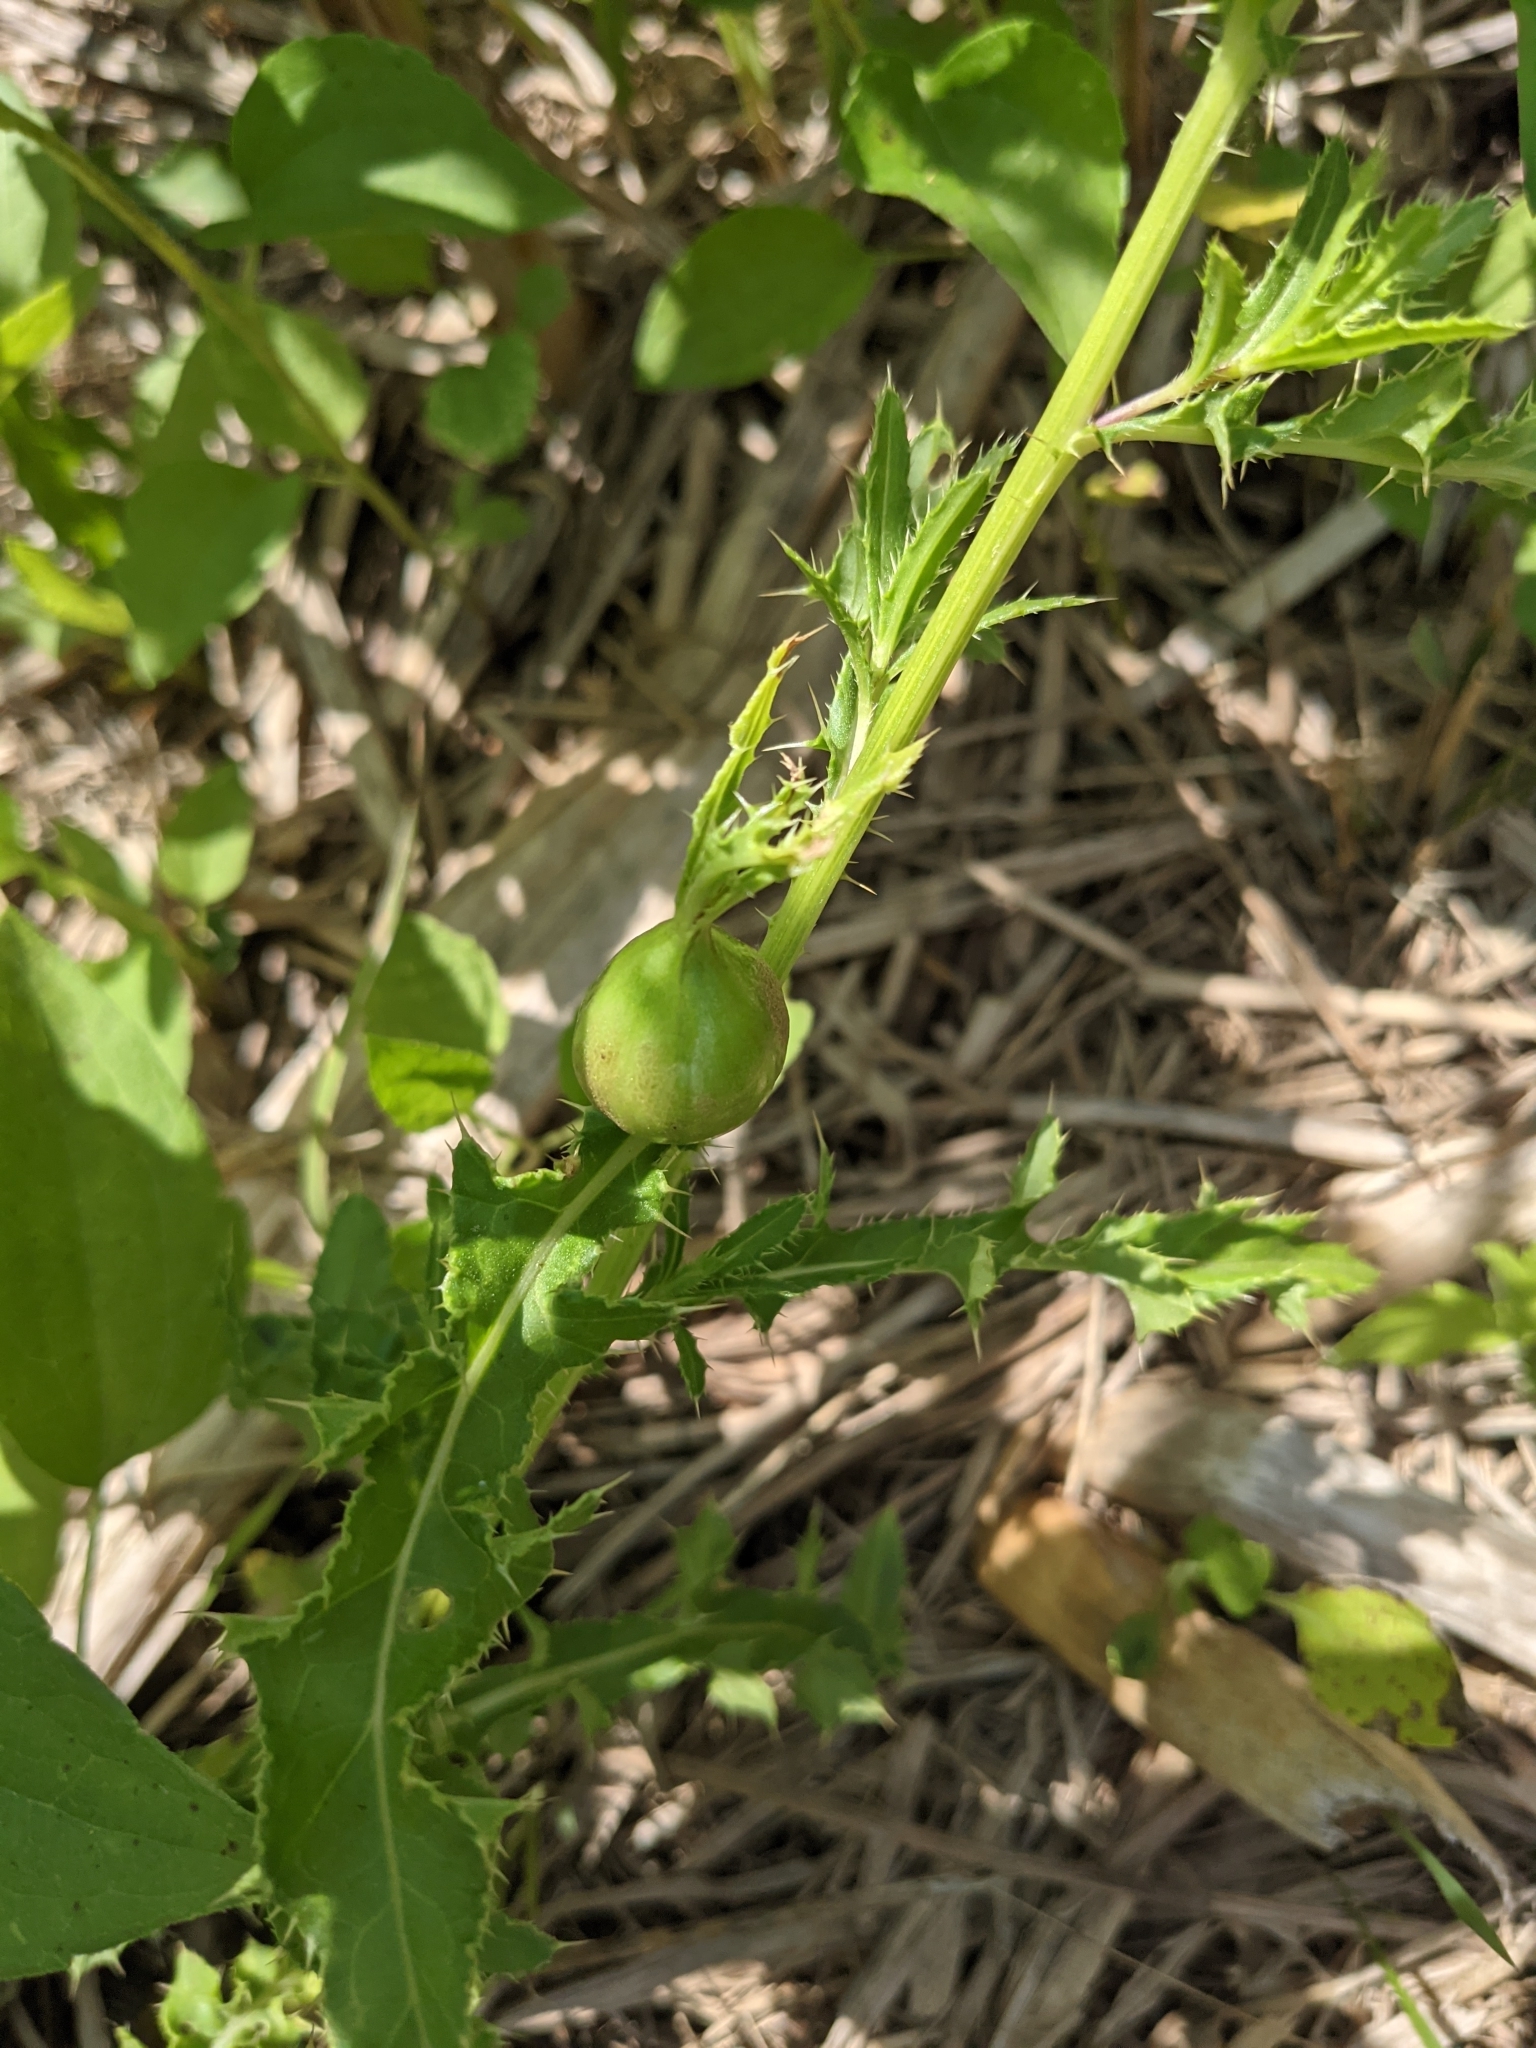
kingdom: Animalia
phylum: Arthropoda
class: Insecta
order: Diptera
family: Tephritidae
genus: Urophora
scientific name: Urophora cardui
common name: Fruit fly
